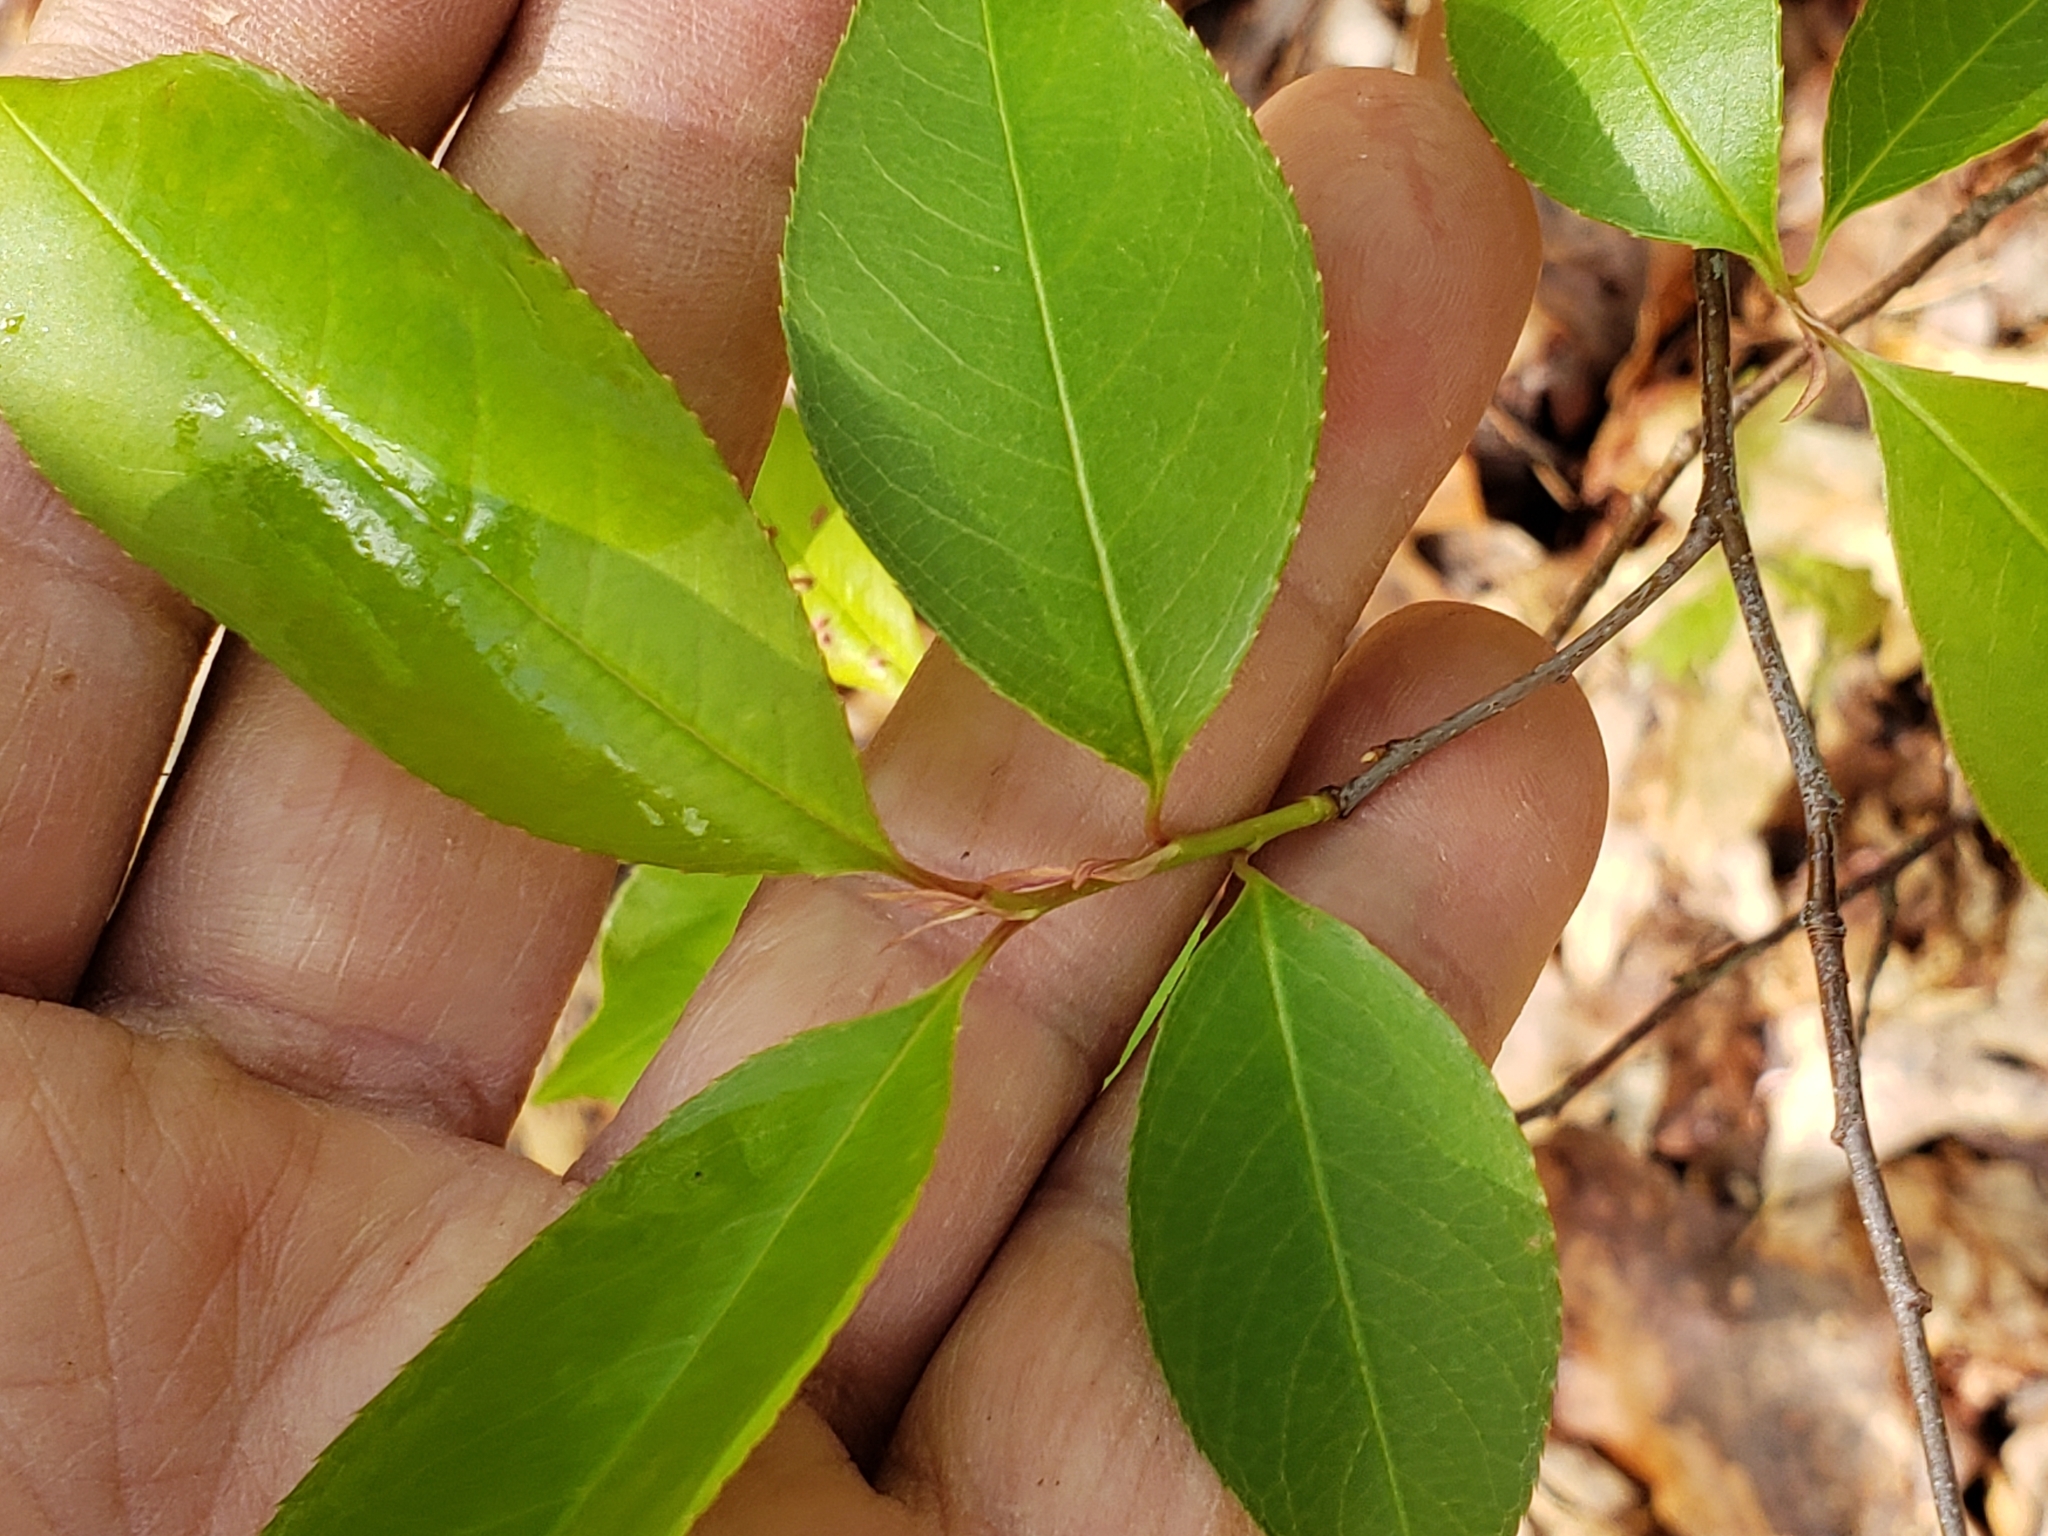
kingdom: Animalia
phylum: Arthropoda
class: Arachnida
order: Trombidiformes
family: Eriophyidae
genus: Eriophyes
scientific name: Eriophyes
